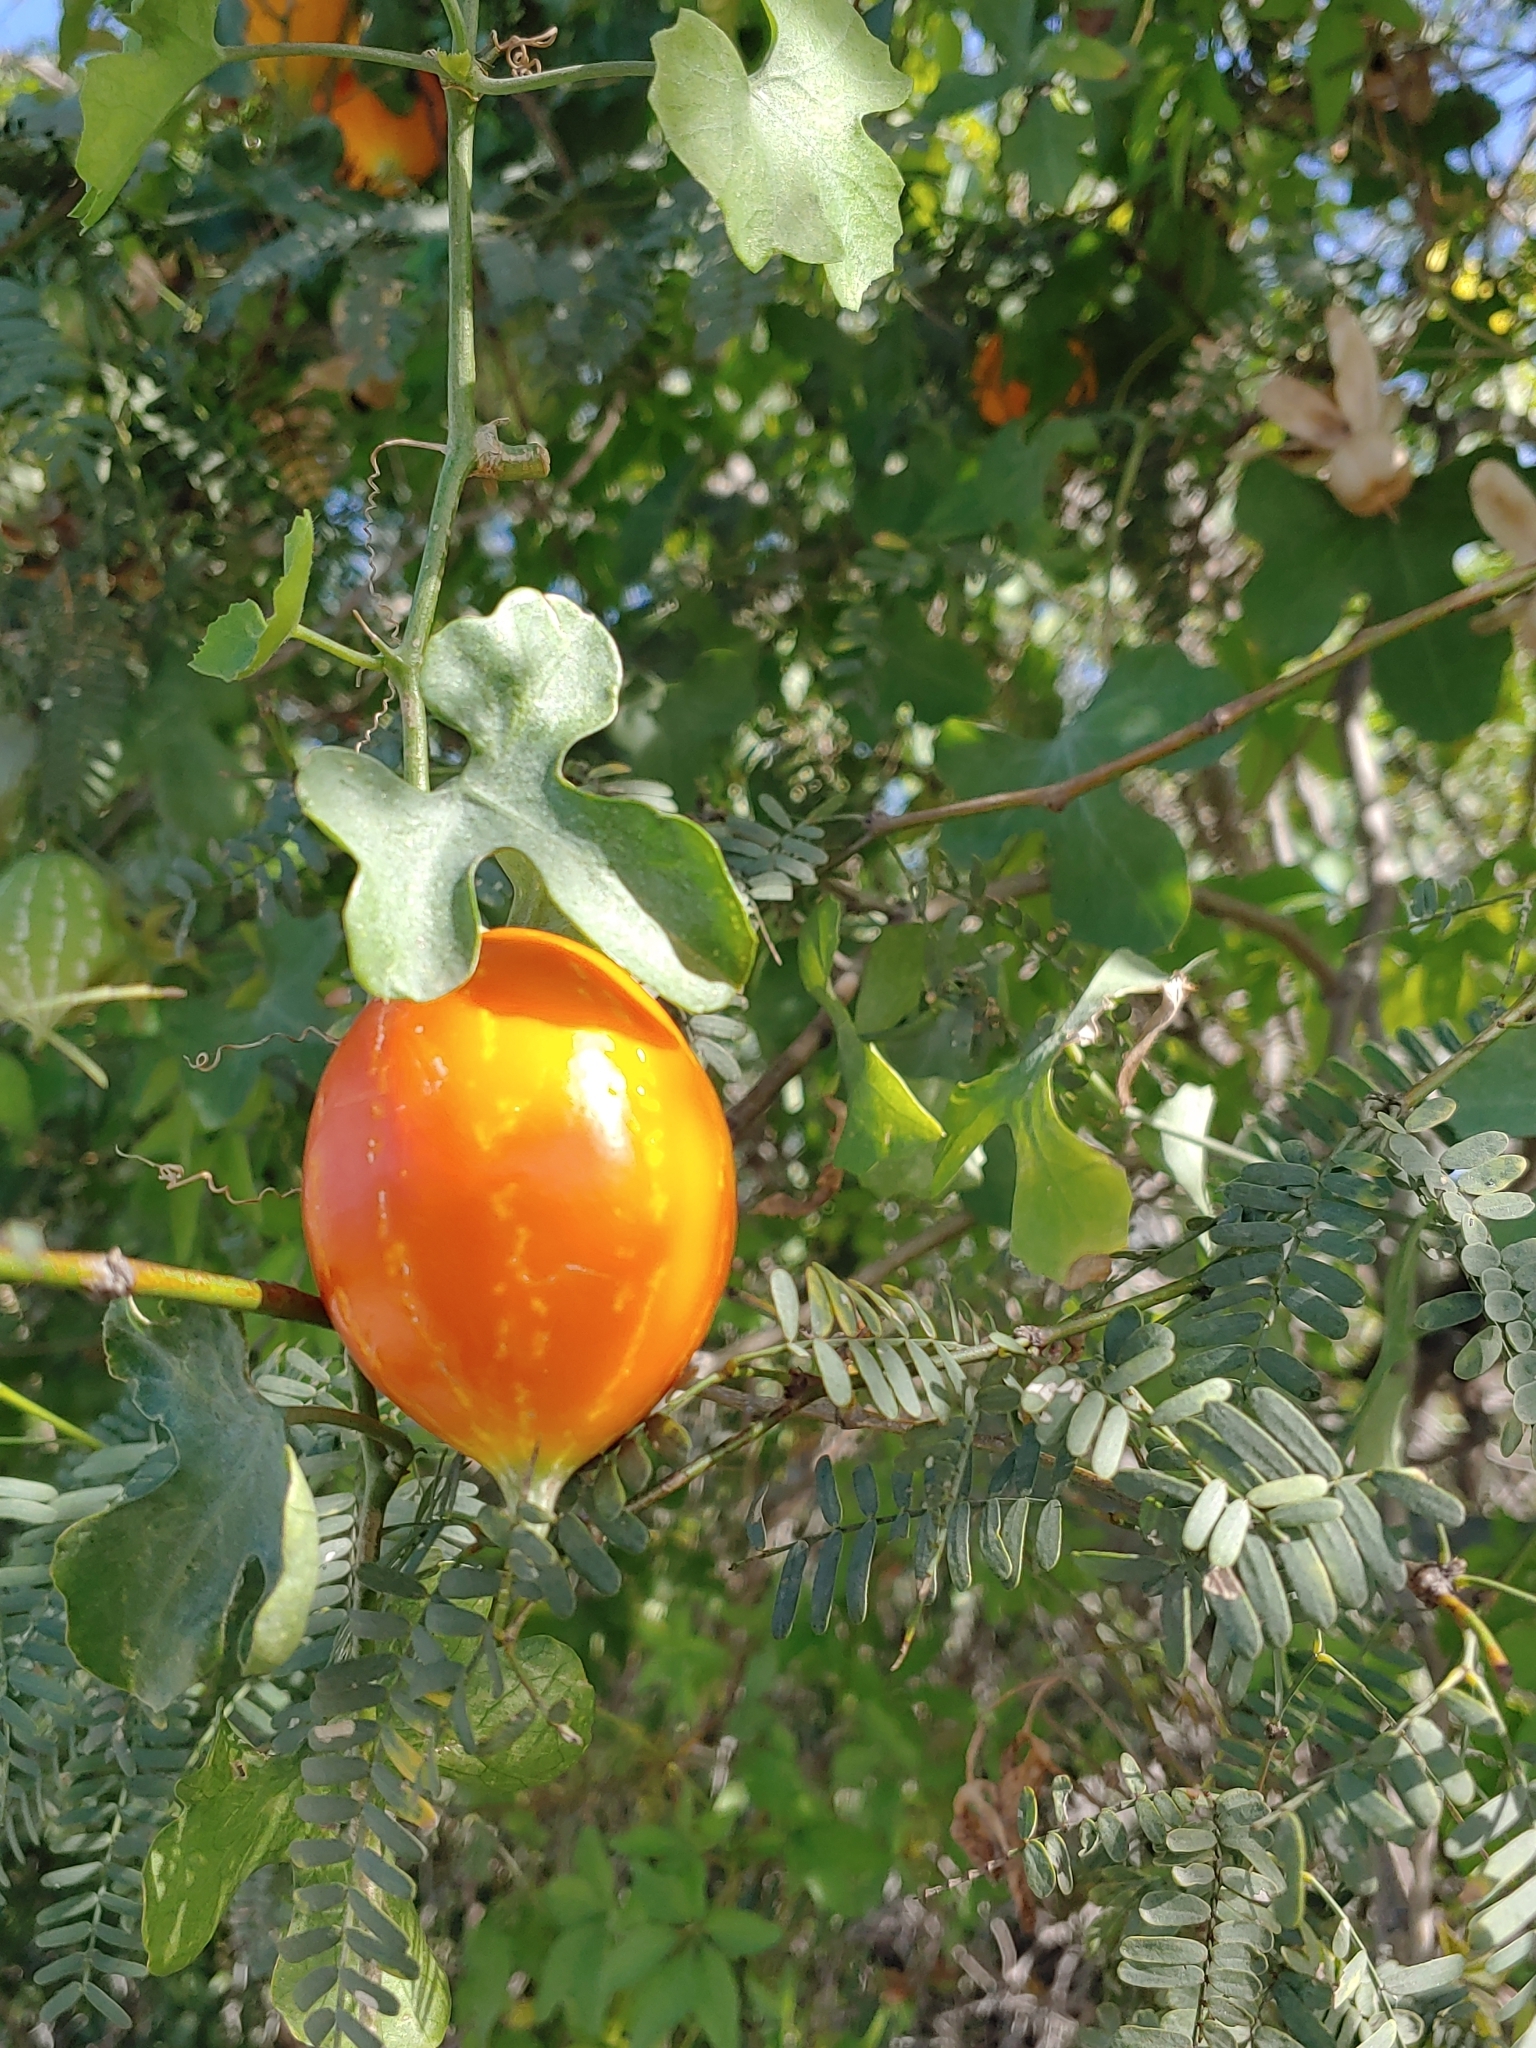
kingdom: Plantae
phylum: Tracheophyta
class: Magnoliopsida
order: Cucurbitales
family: Cucurbitaceae
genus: Ibervillea
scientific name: Ibervillea sonorae
